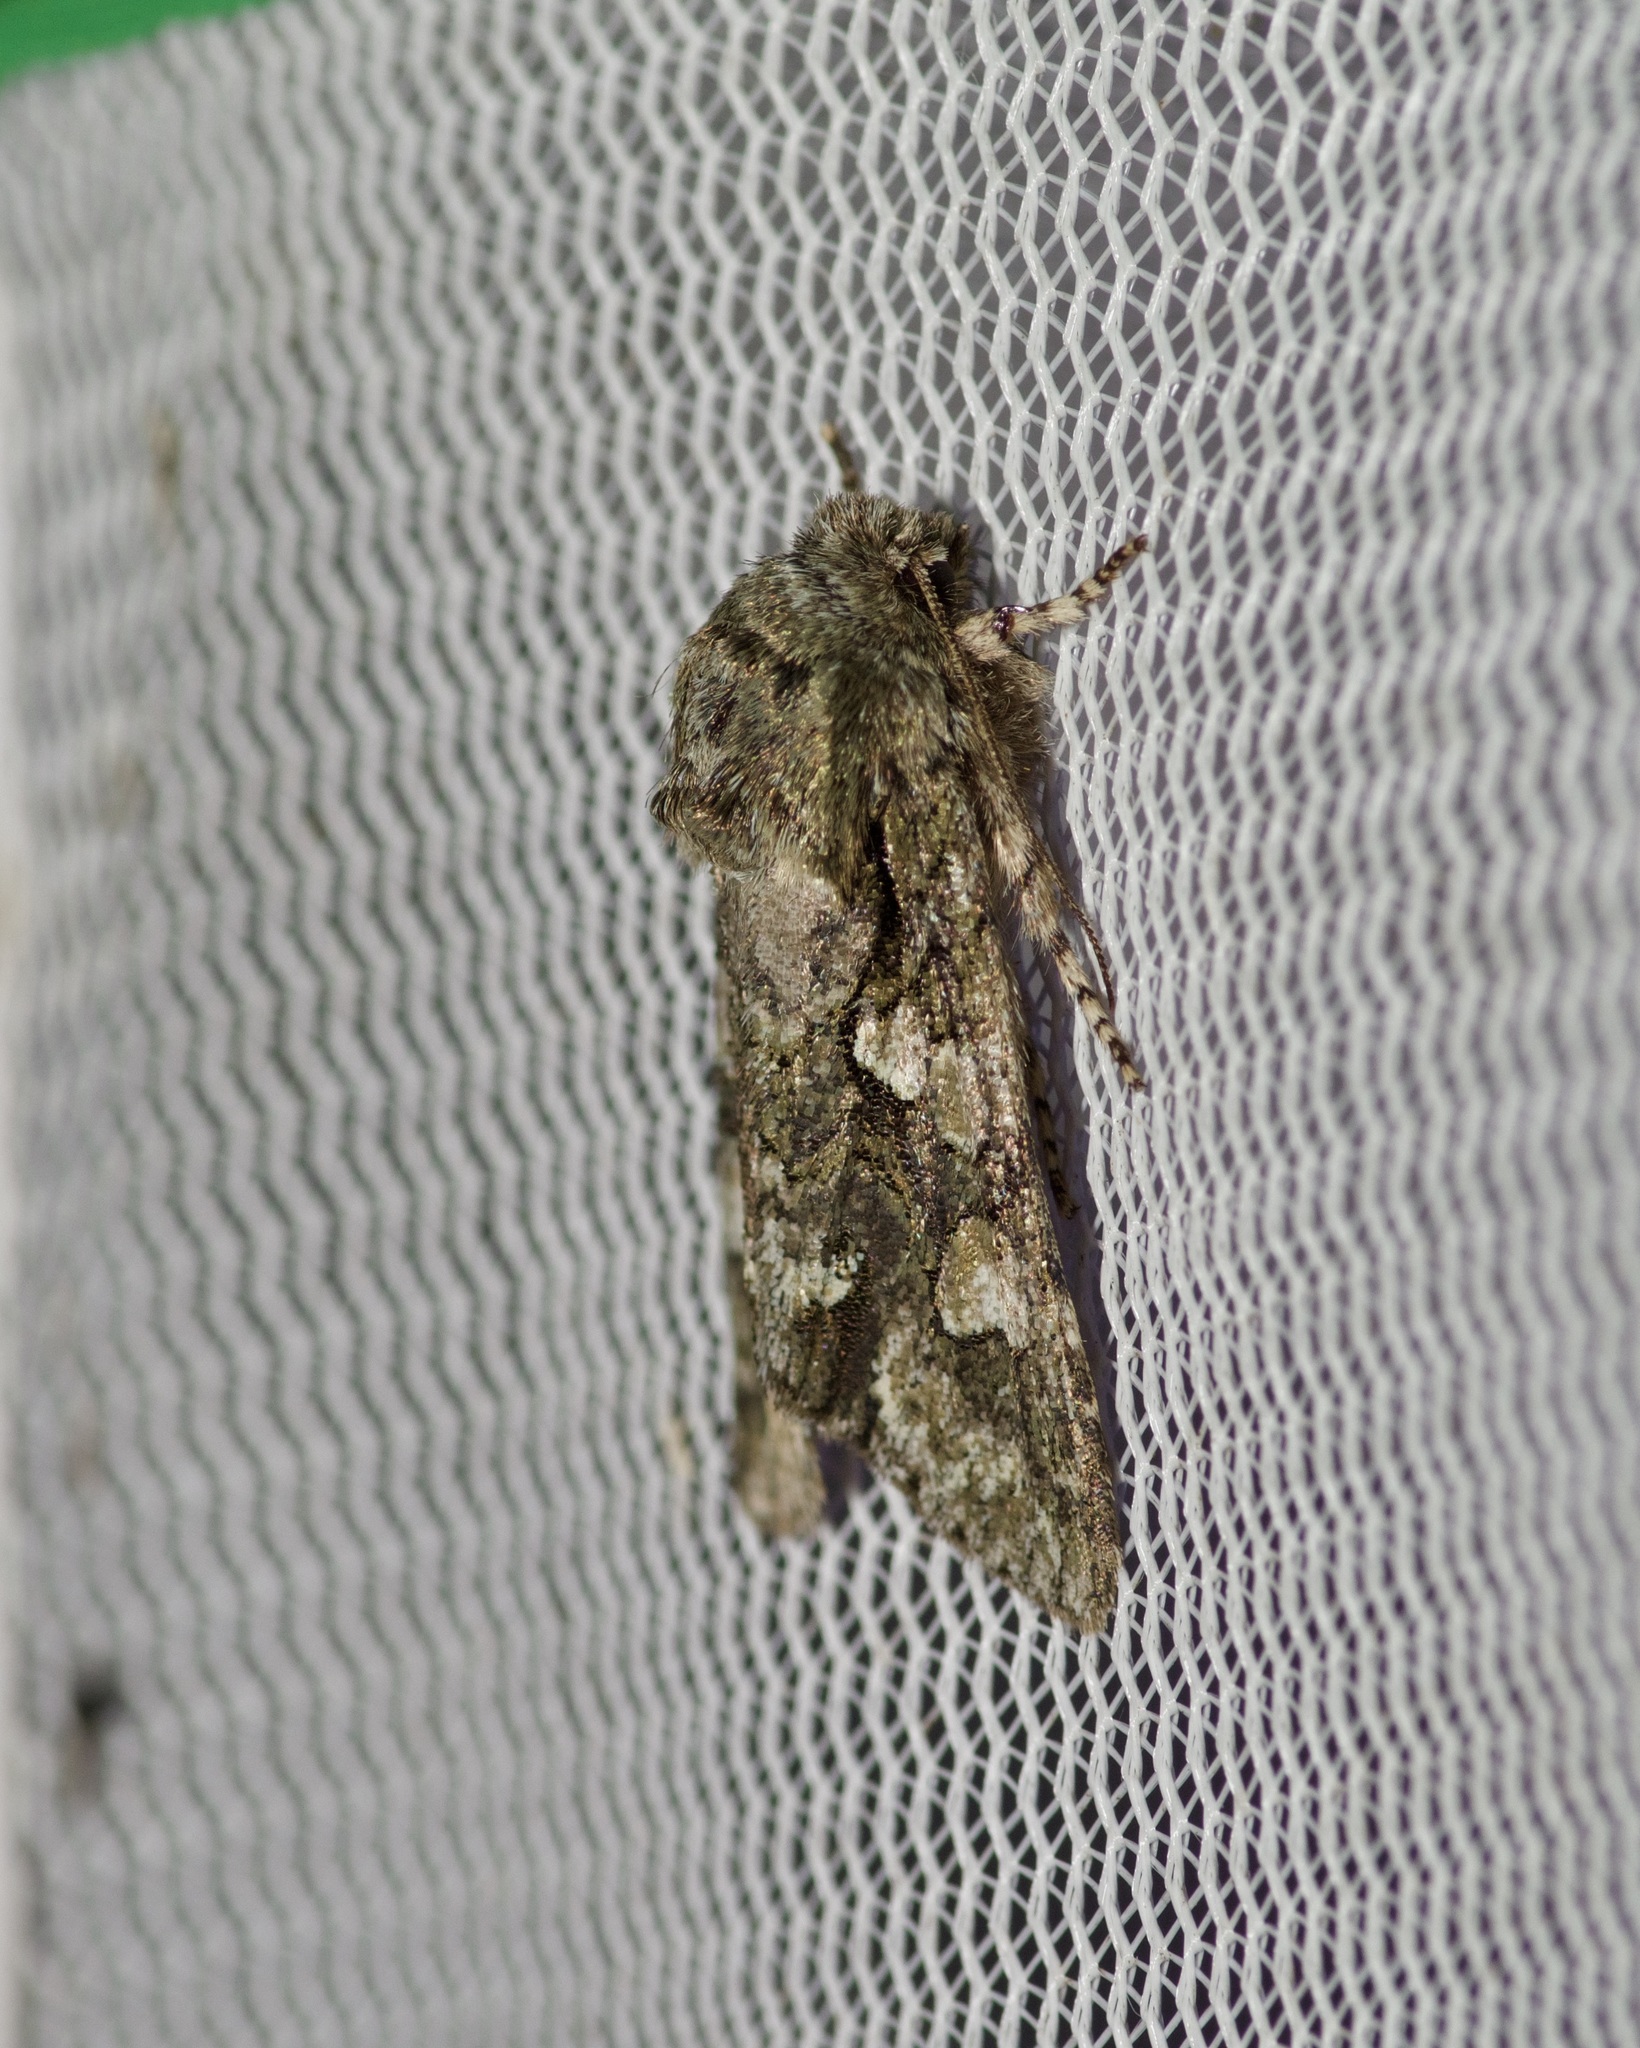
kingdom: Animalia
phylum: Arthropoda
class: Insecta
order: Lepidoptera
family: Noctuidae
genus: Psaphida
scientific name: Psaphida resumens
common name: Figure-eight sallow
